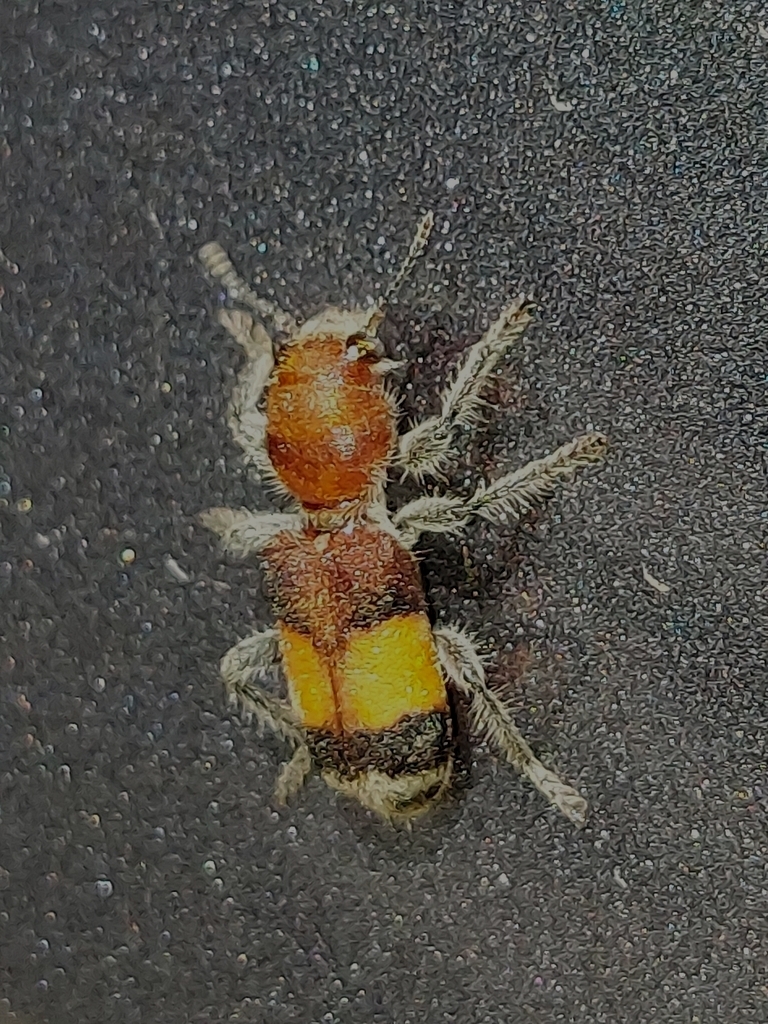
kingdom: Animalia
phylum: Arthropoda
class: Insecta
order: Coleoptera
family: Cleridae
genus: Enoclerus
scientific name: Enoclerus ichneumoneus
